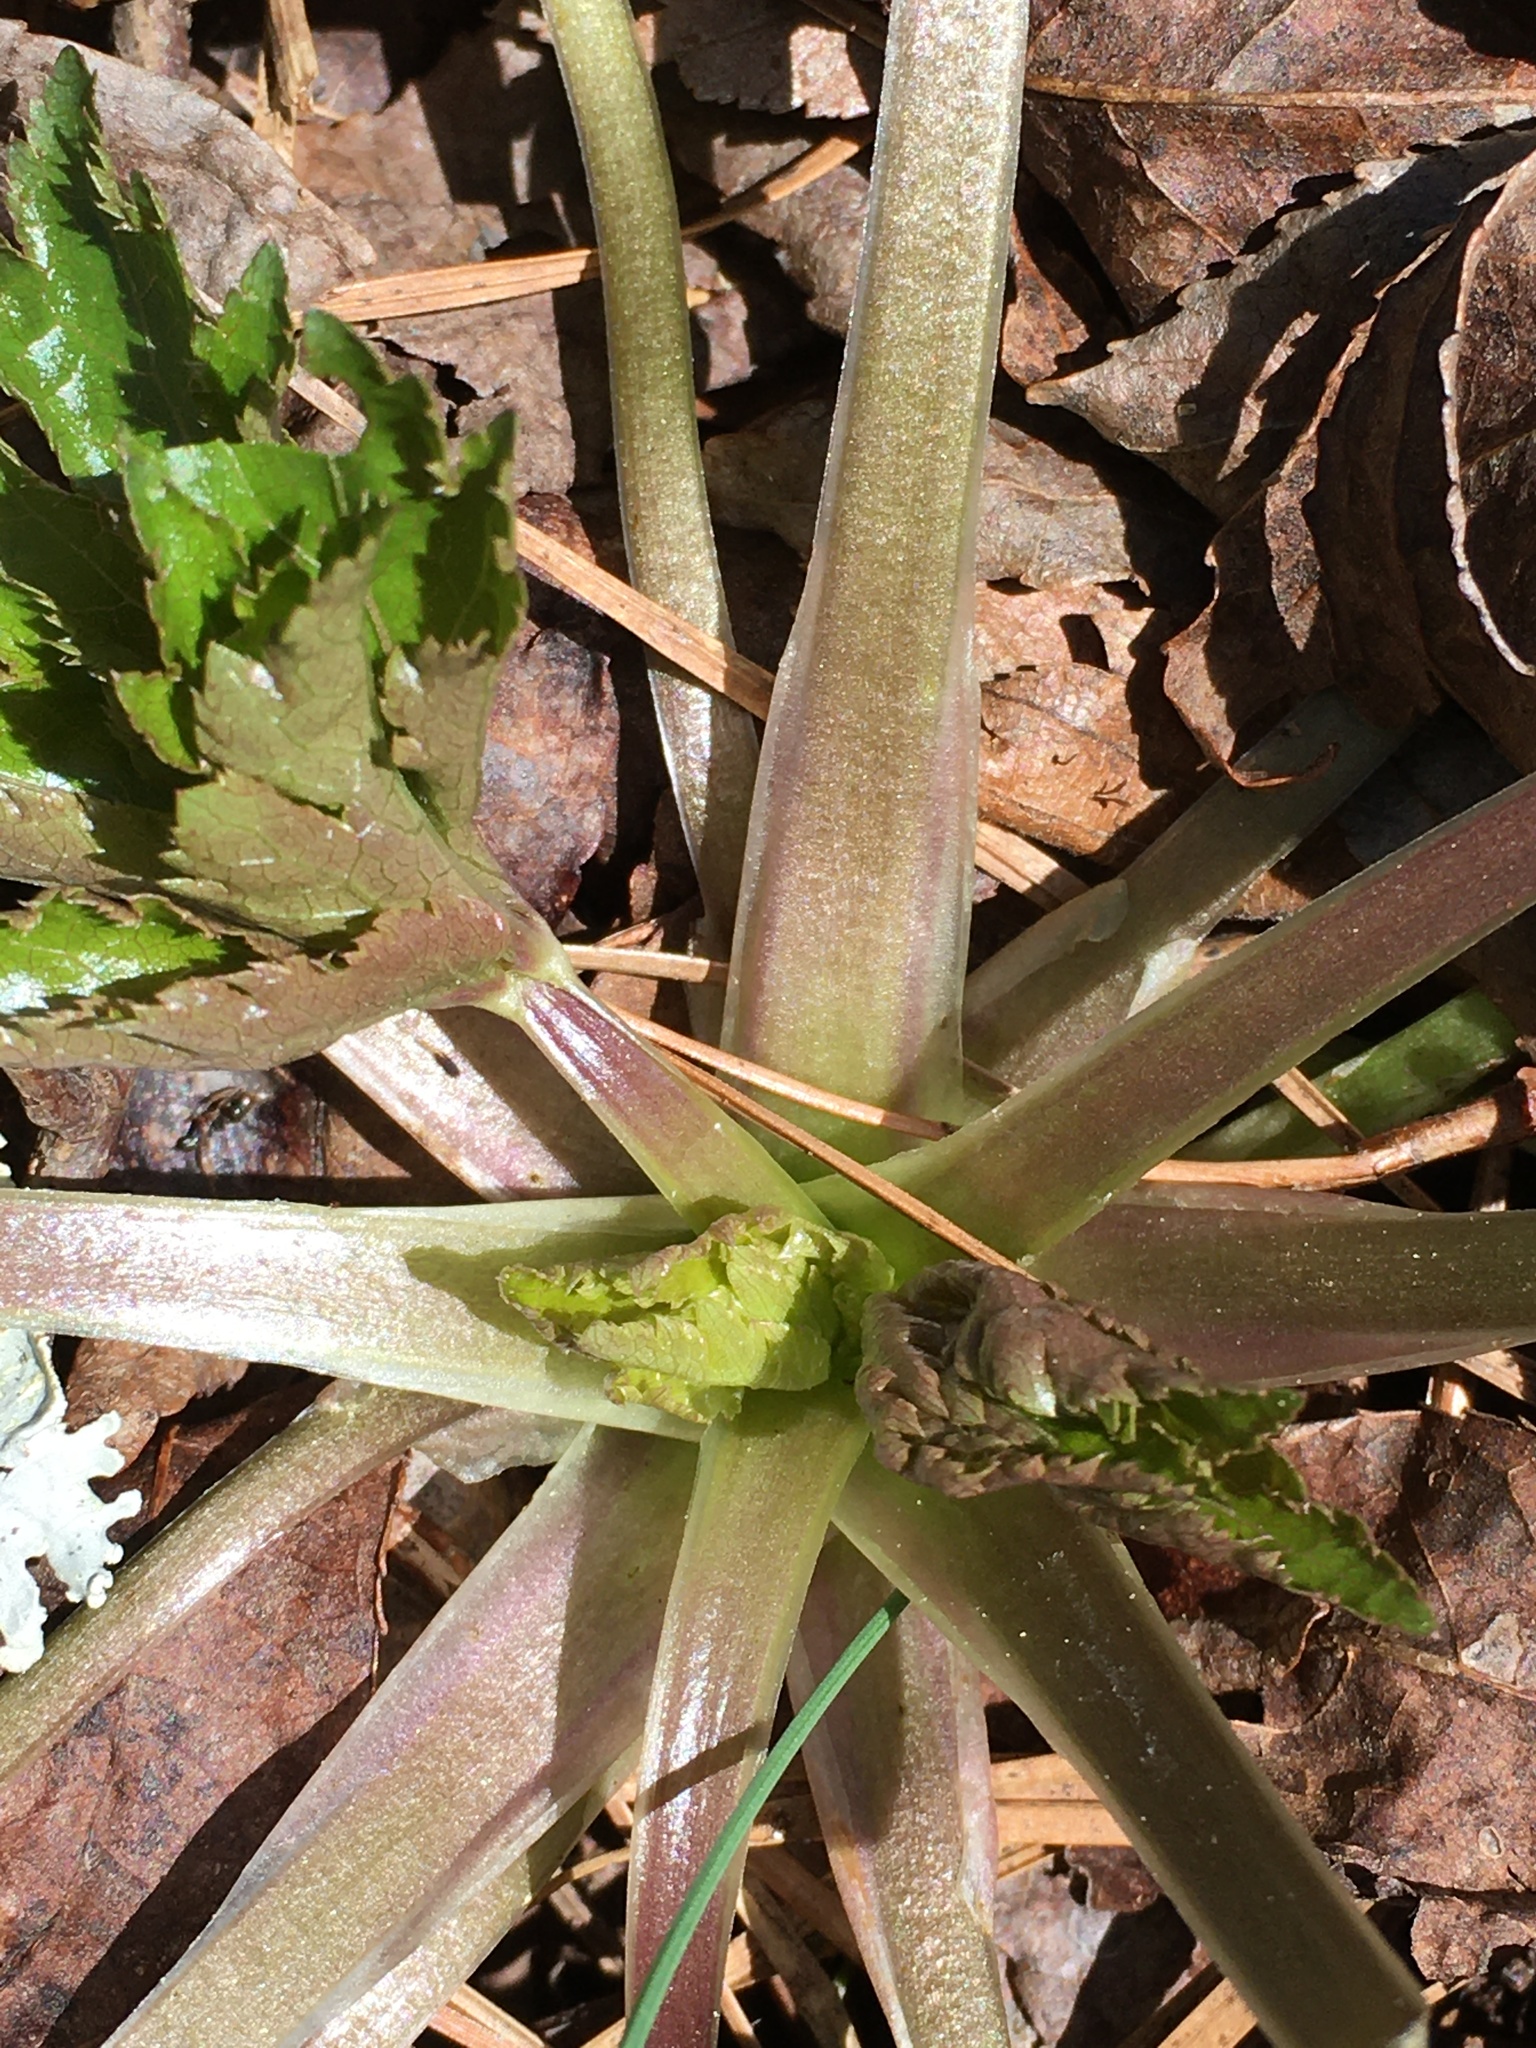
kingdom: Plantae
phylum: Tracheophyta
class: Magnoliopsida
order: Apiales
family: Apiaceae
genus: Sanicula
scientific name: Sanicula canadensis
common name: Canada sanicle
